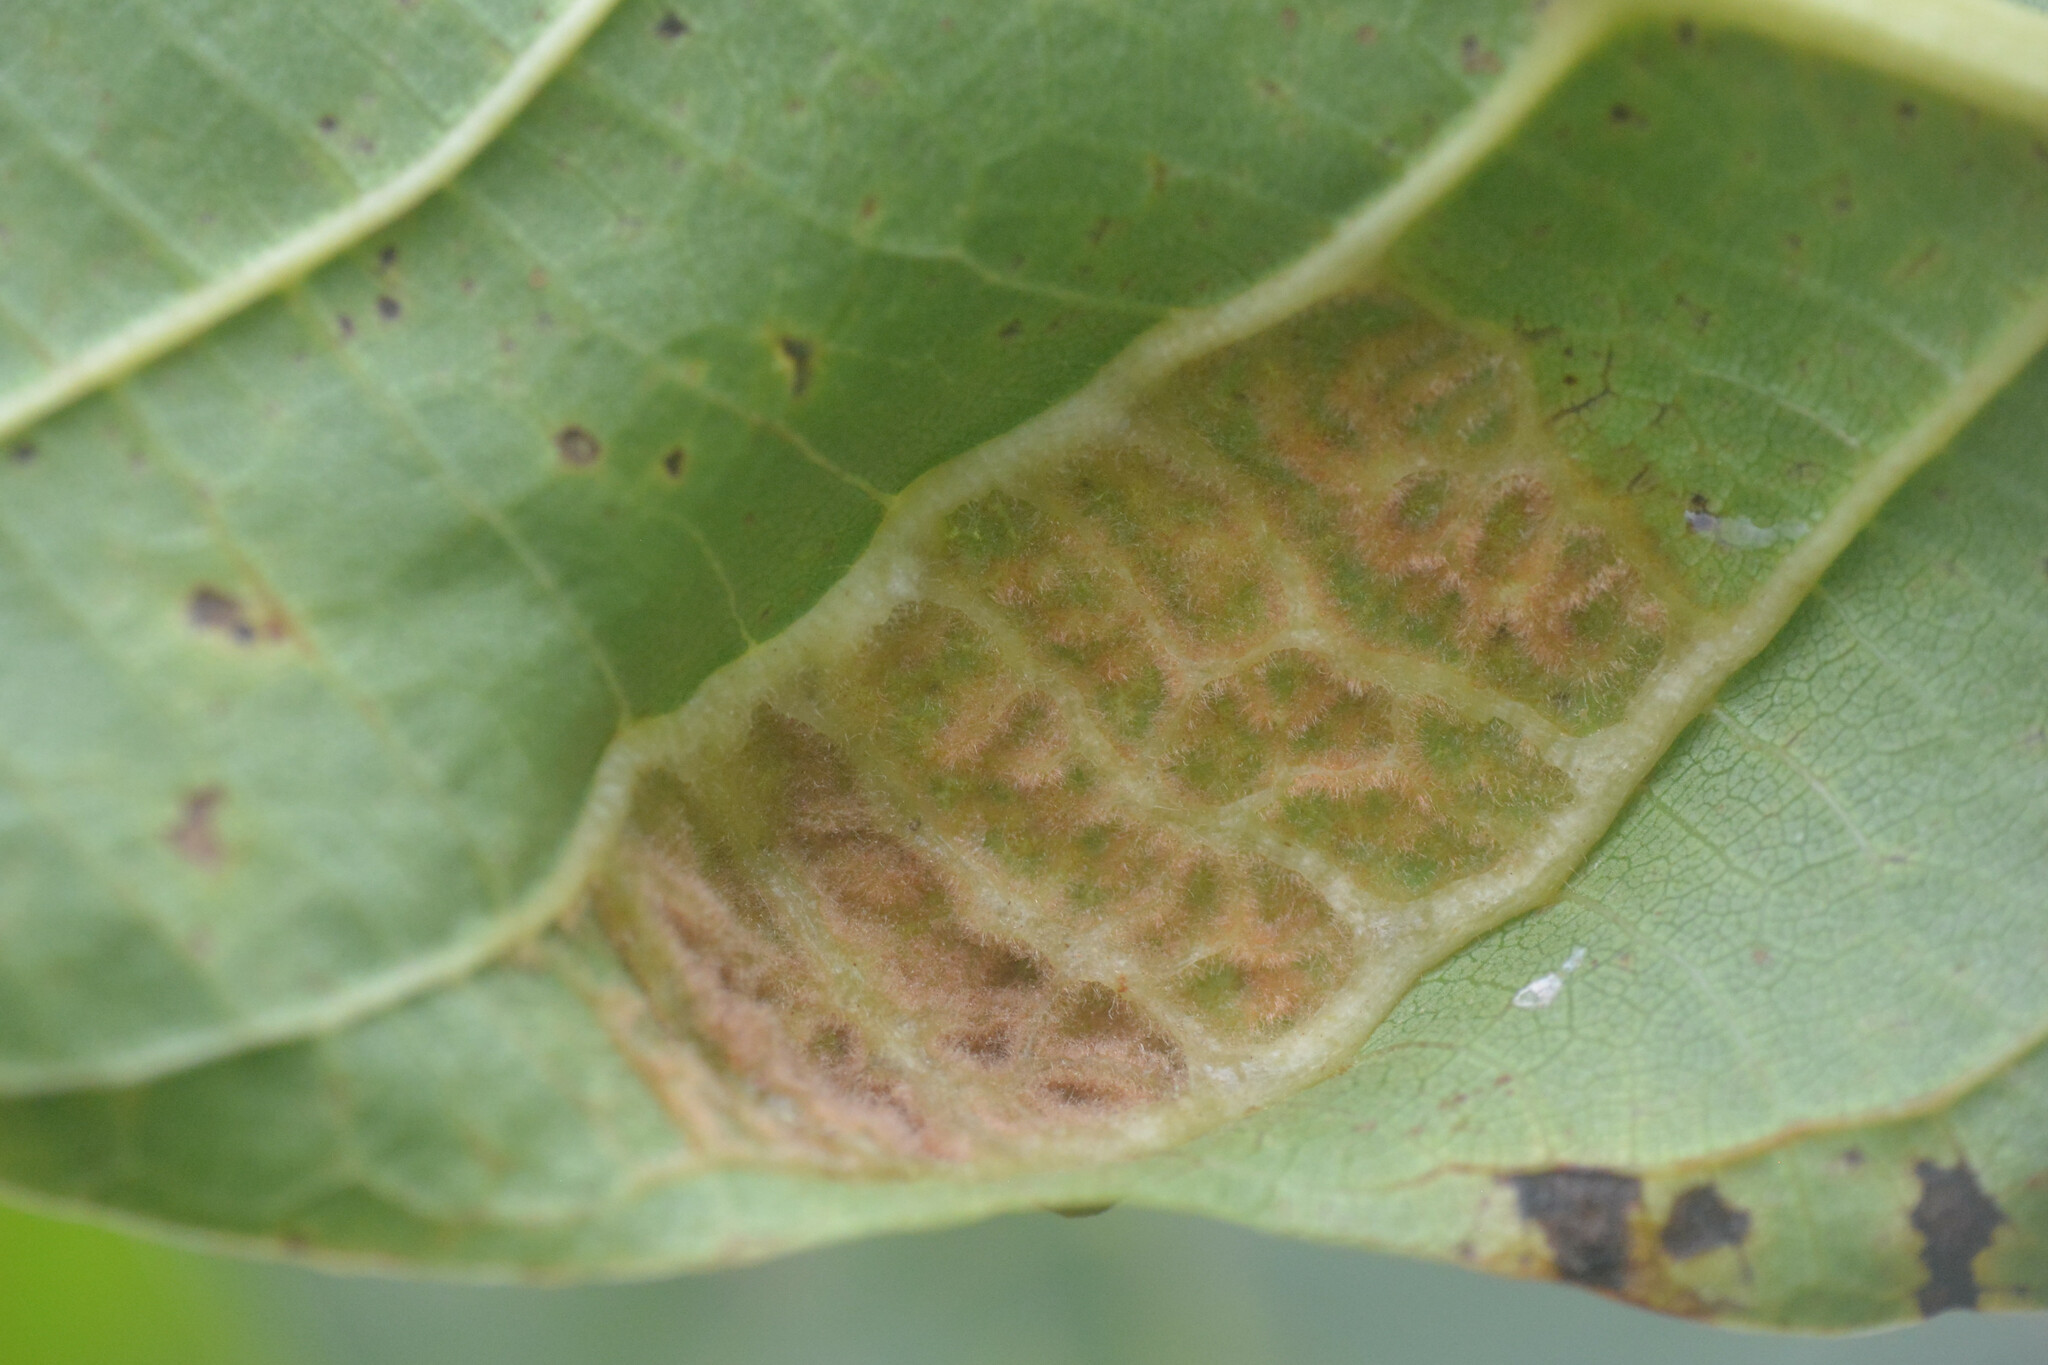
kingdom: Animalia
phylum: Arthropoda
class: Arachnida
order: Trombidiformes
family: Eriophyidae
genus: Aceria
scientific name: Aceria erinea
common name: Persian walnut erineum mite
